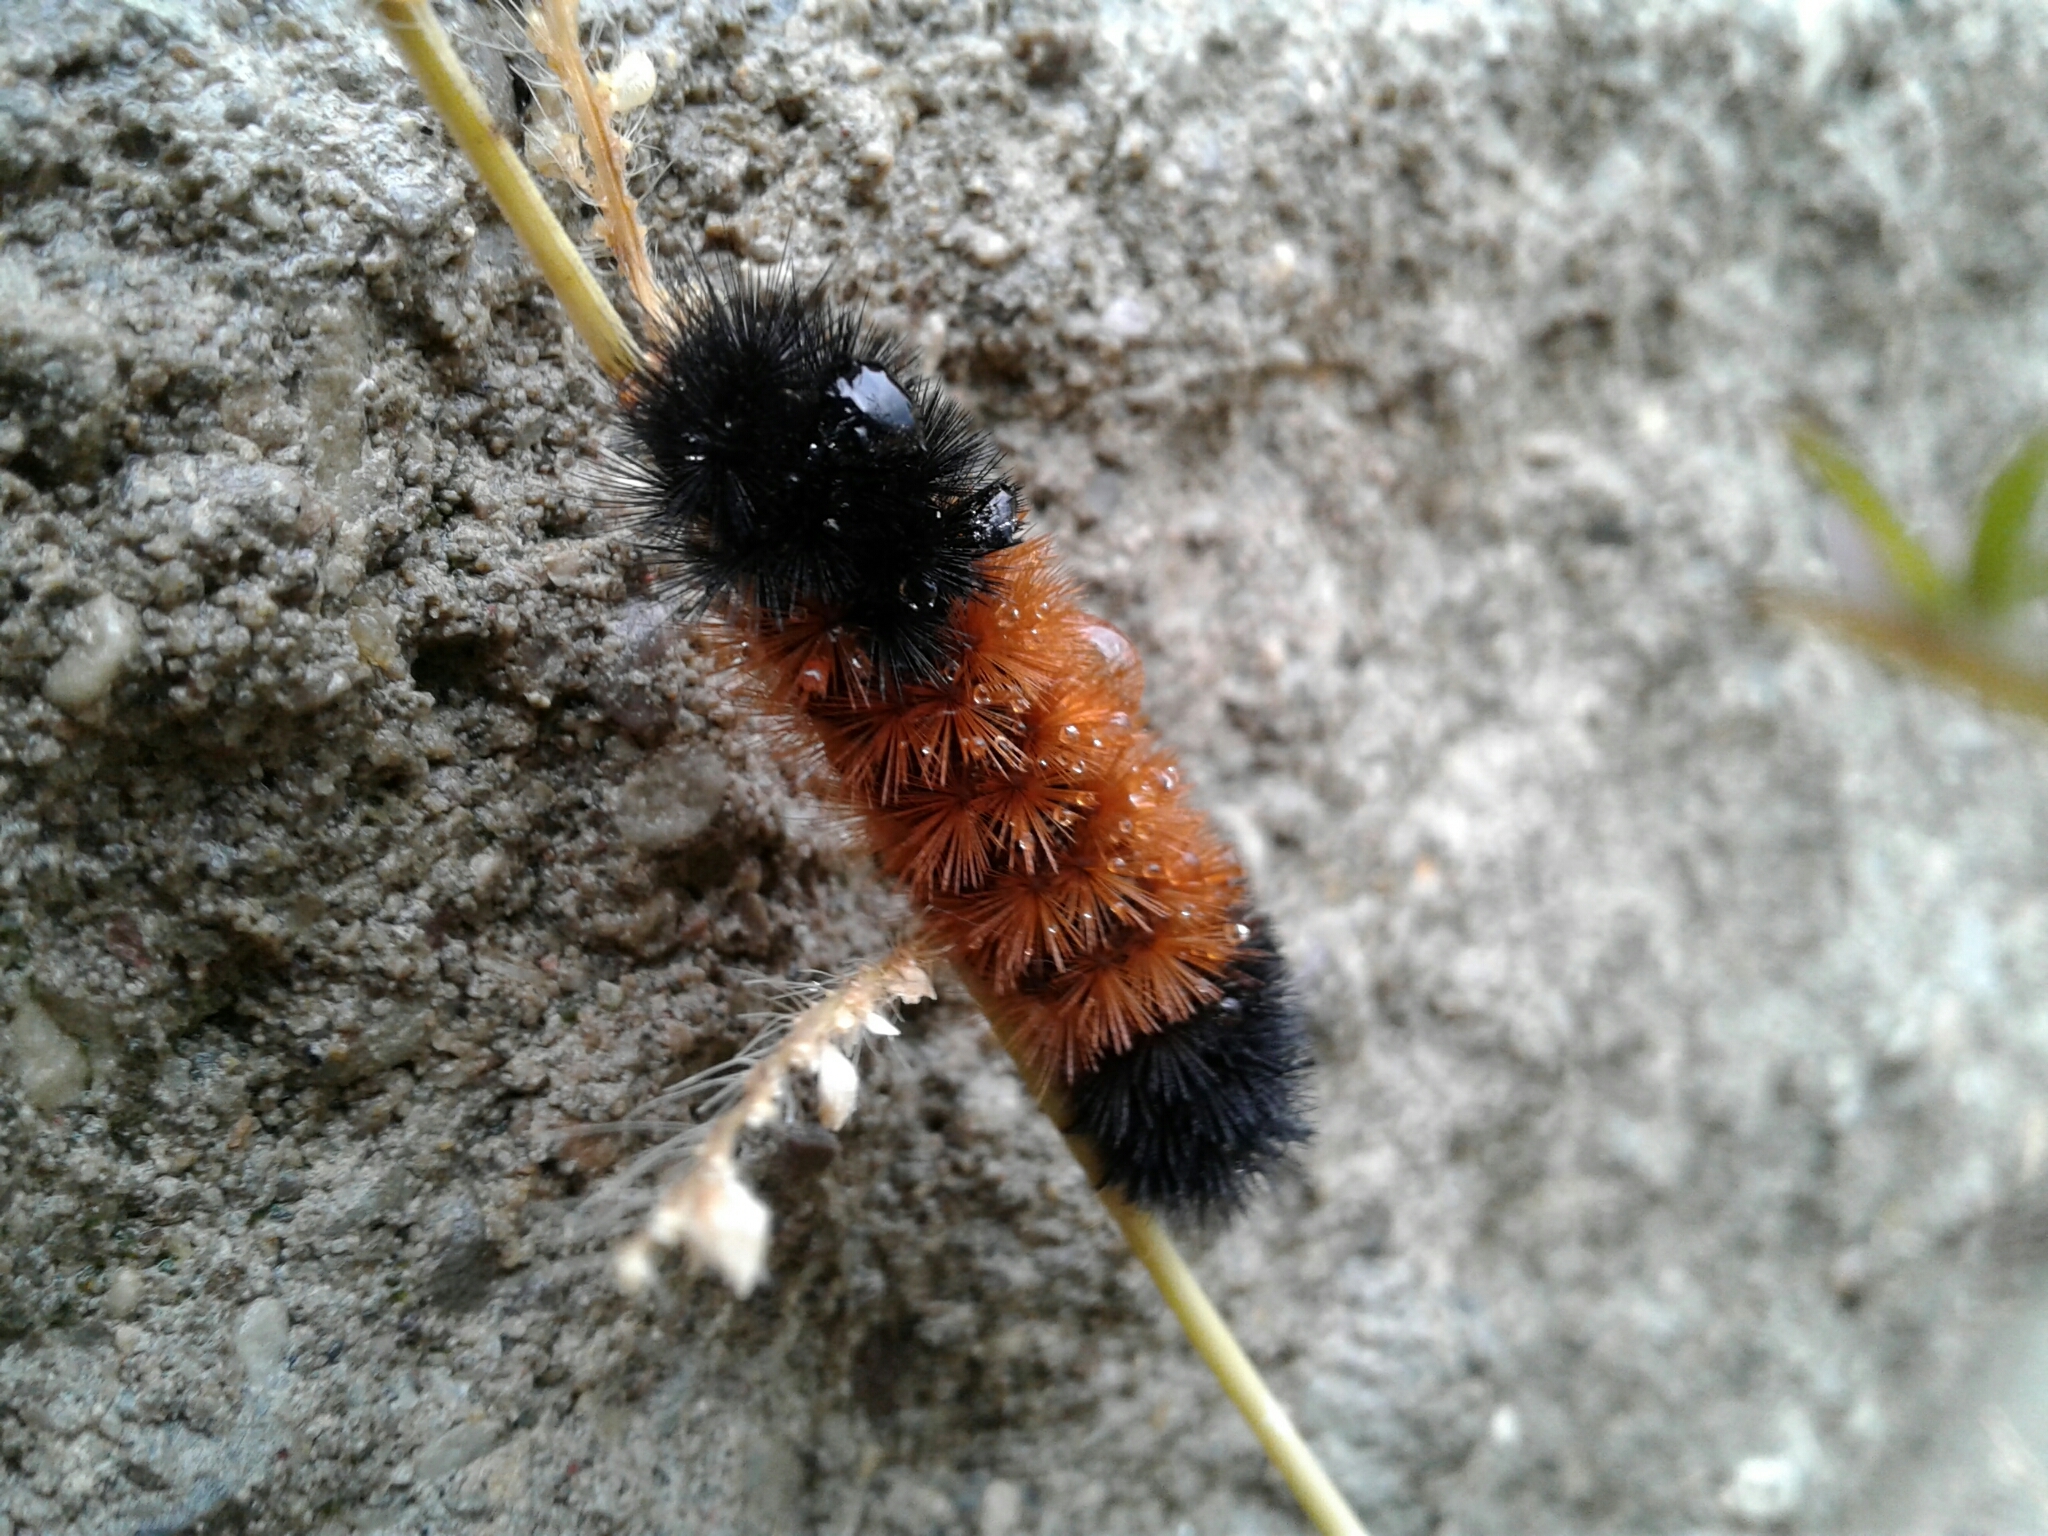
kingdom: Animalia
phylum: Arthropoda
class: Insecta
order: Lepidoptera
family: Erebidae
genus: Pyrrharctia
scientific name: Pyrrharctia isabella
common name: Isabella tiger moth
